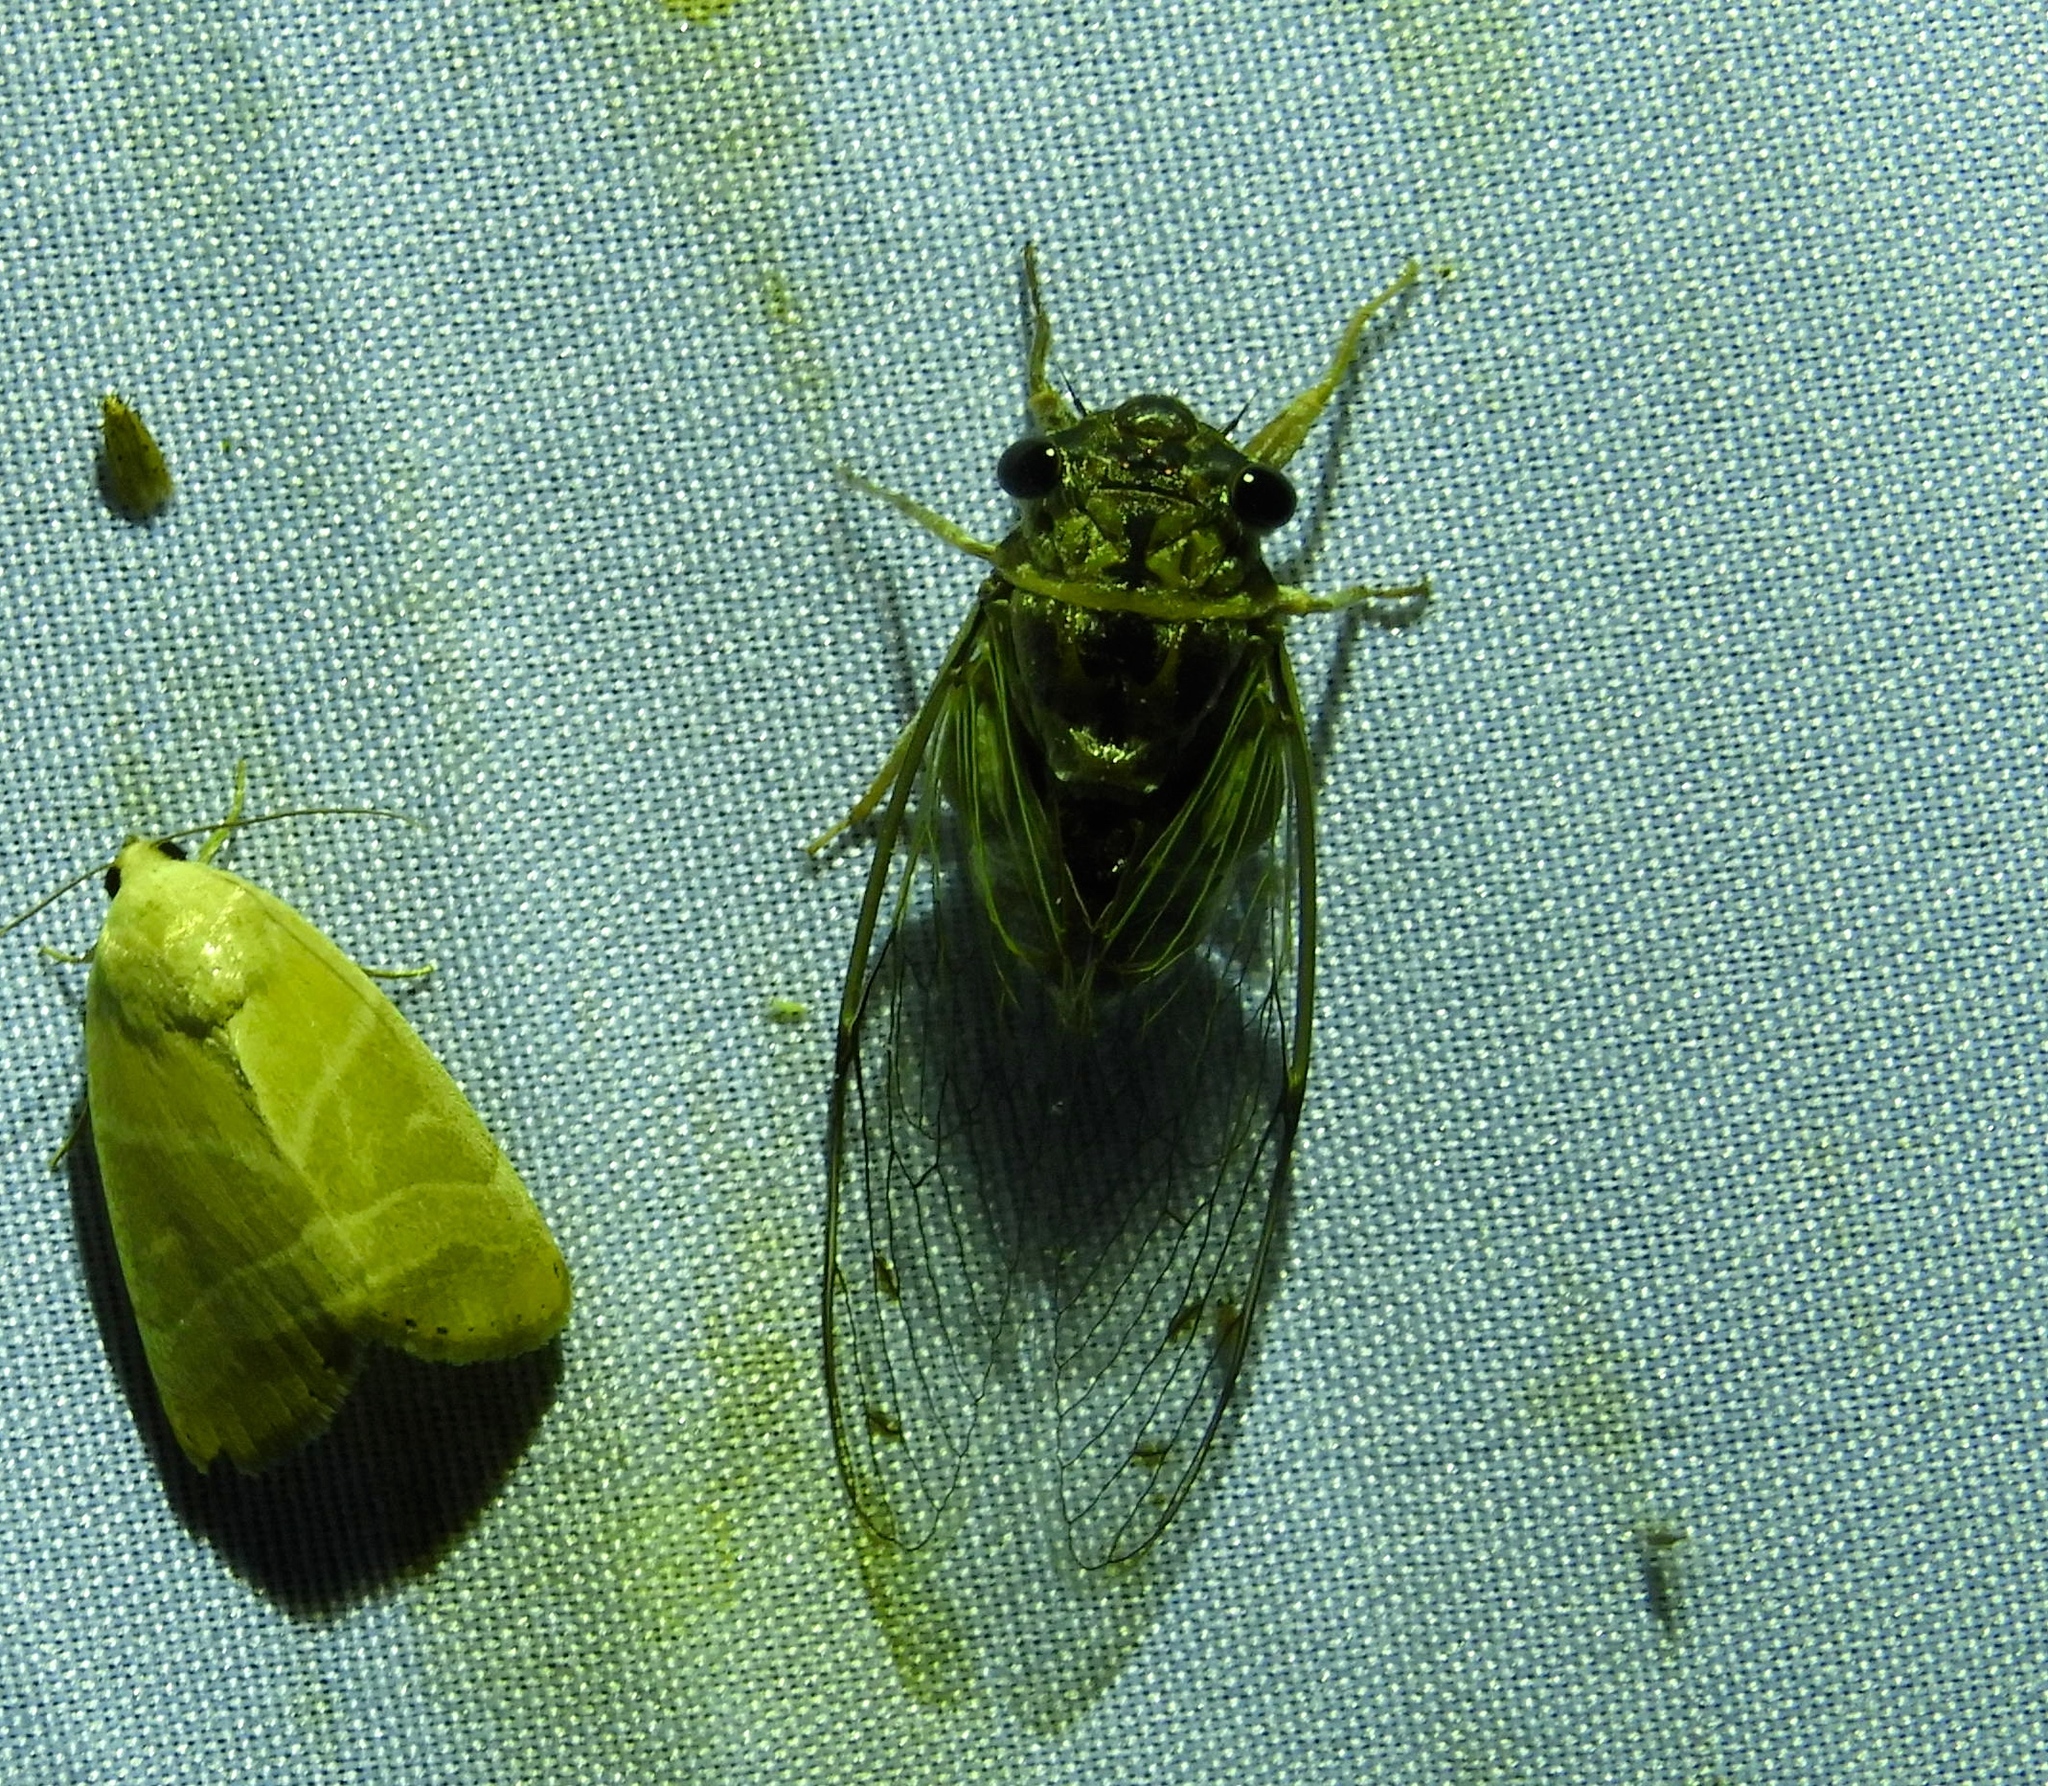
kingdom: Animalia
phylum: Arthropoda
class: Insecta
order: Hemiptera
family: Cicadidae
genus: Diceroprocta
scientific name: Diceroprocta tepicana
